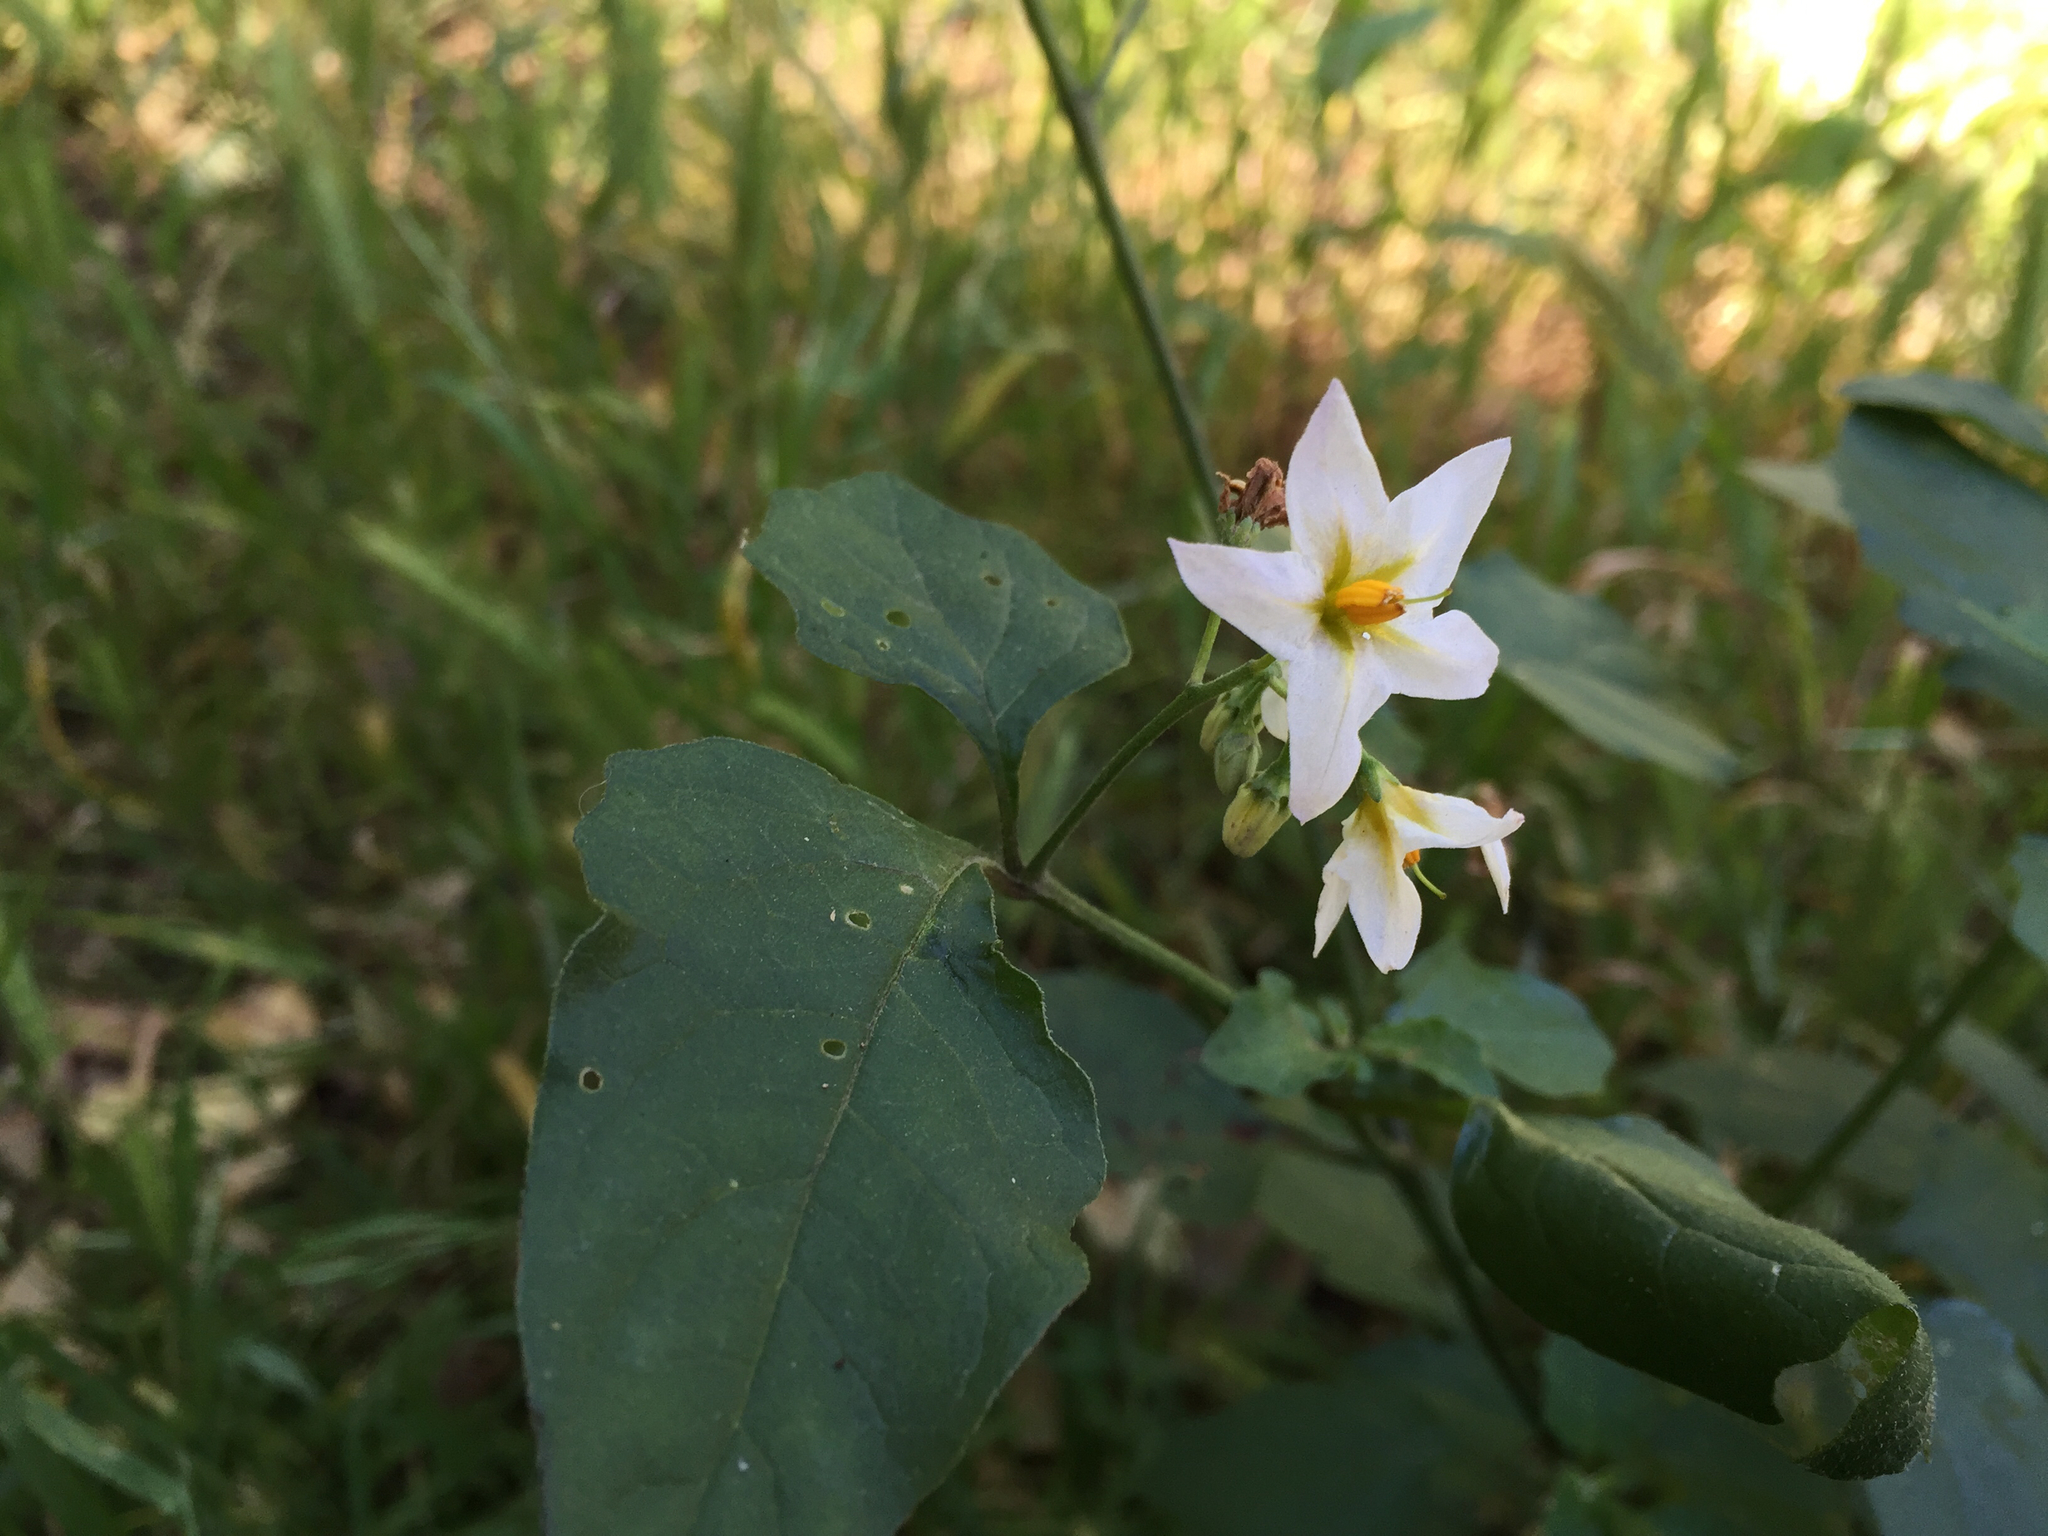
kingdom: Plantae
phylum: Tracheophyta
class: Magnoliopsida
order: Solanales
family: Solanaceae
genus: Solanum
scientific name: Solanum douglasii
